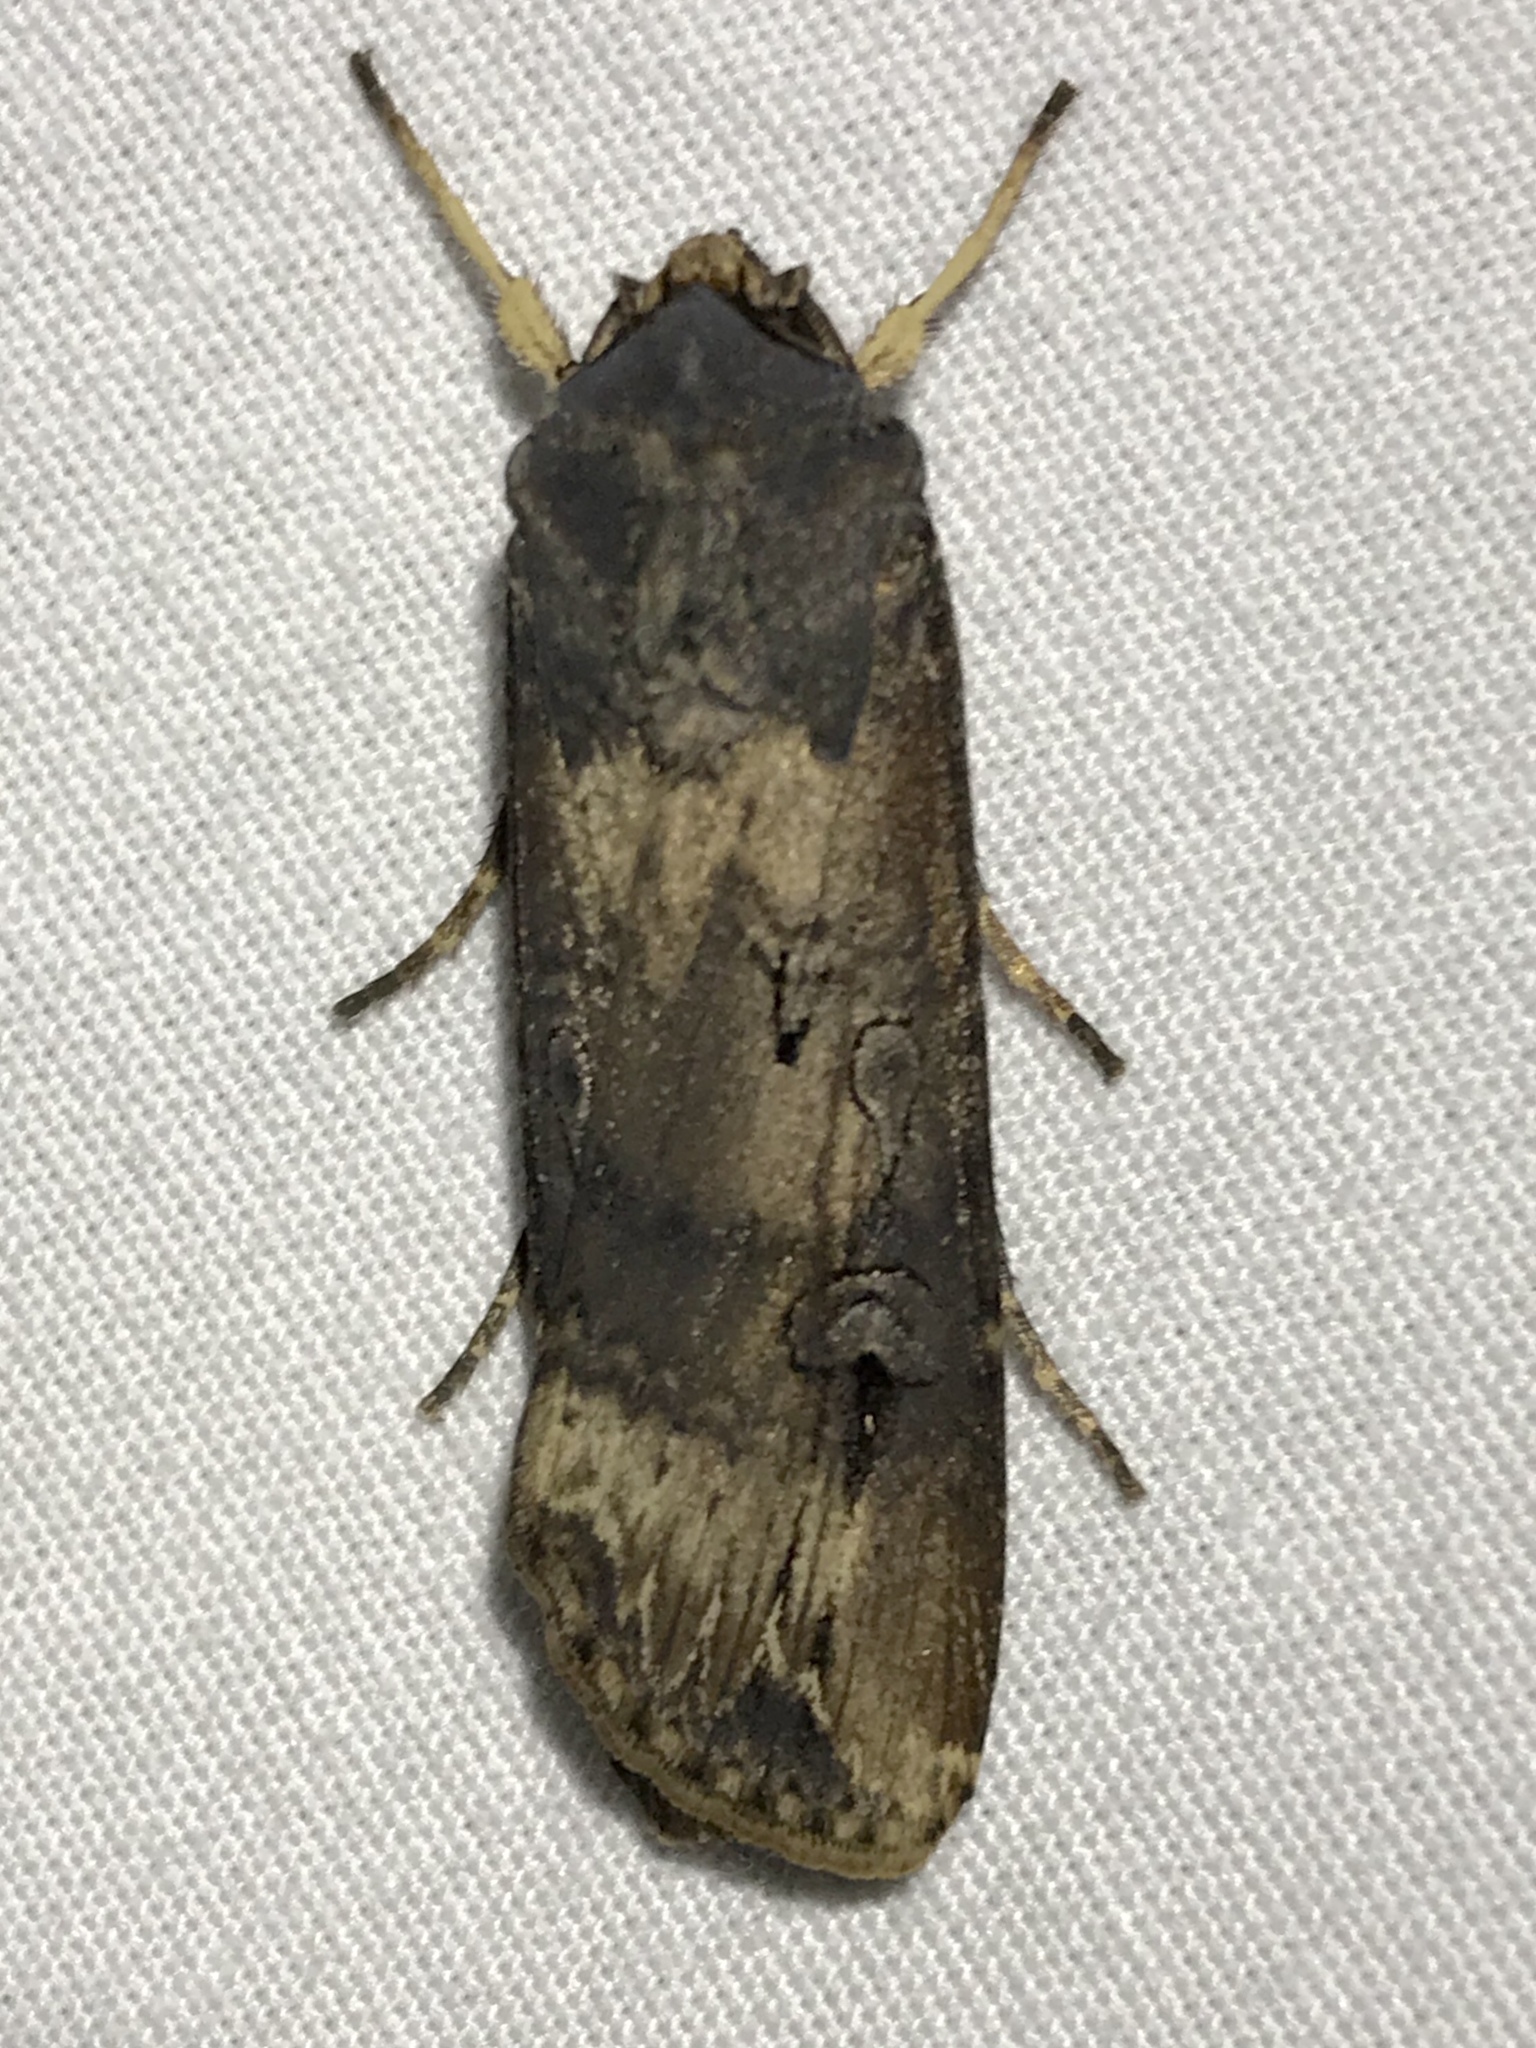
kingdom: Animalia
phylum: Arthropoda
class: Insecta
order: Lepidoptera
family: Noctuidae
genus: Agrotis
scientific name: Agrotis ipsilon
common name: Dark sword-grass
